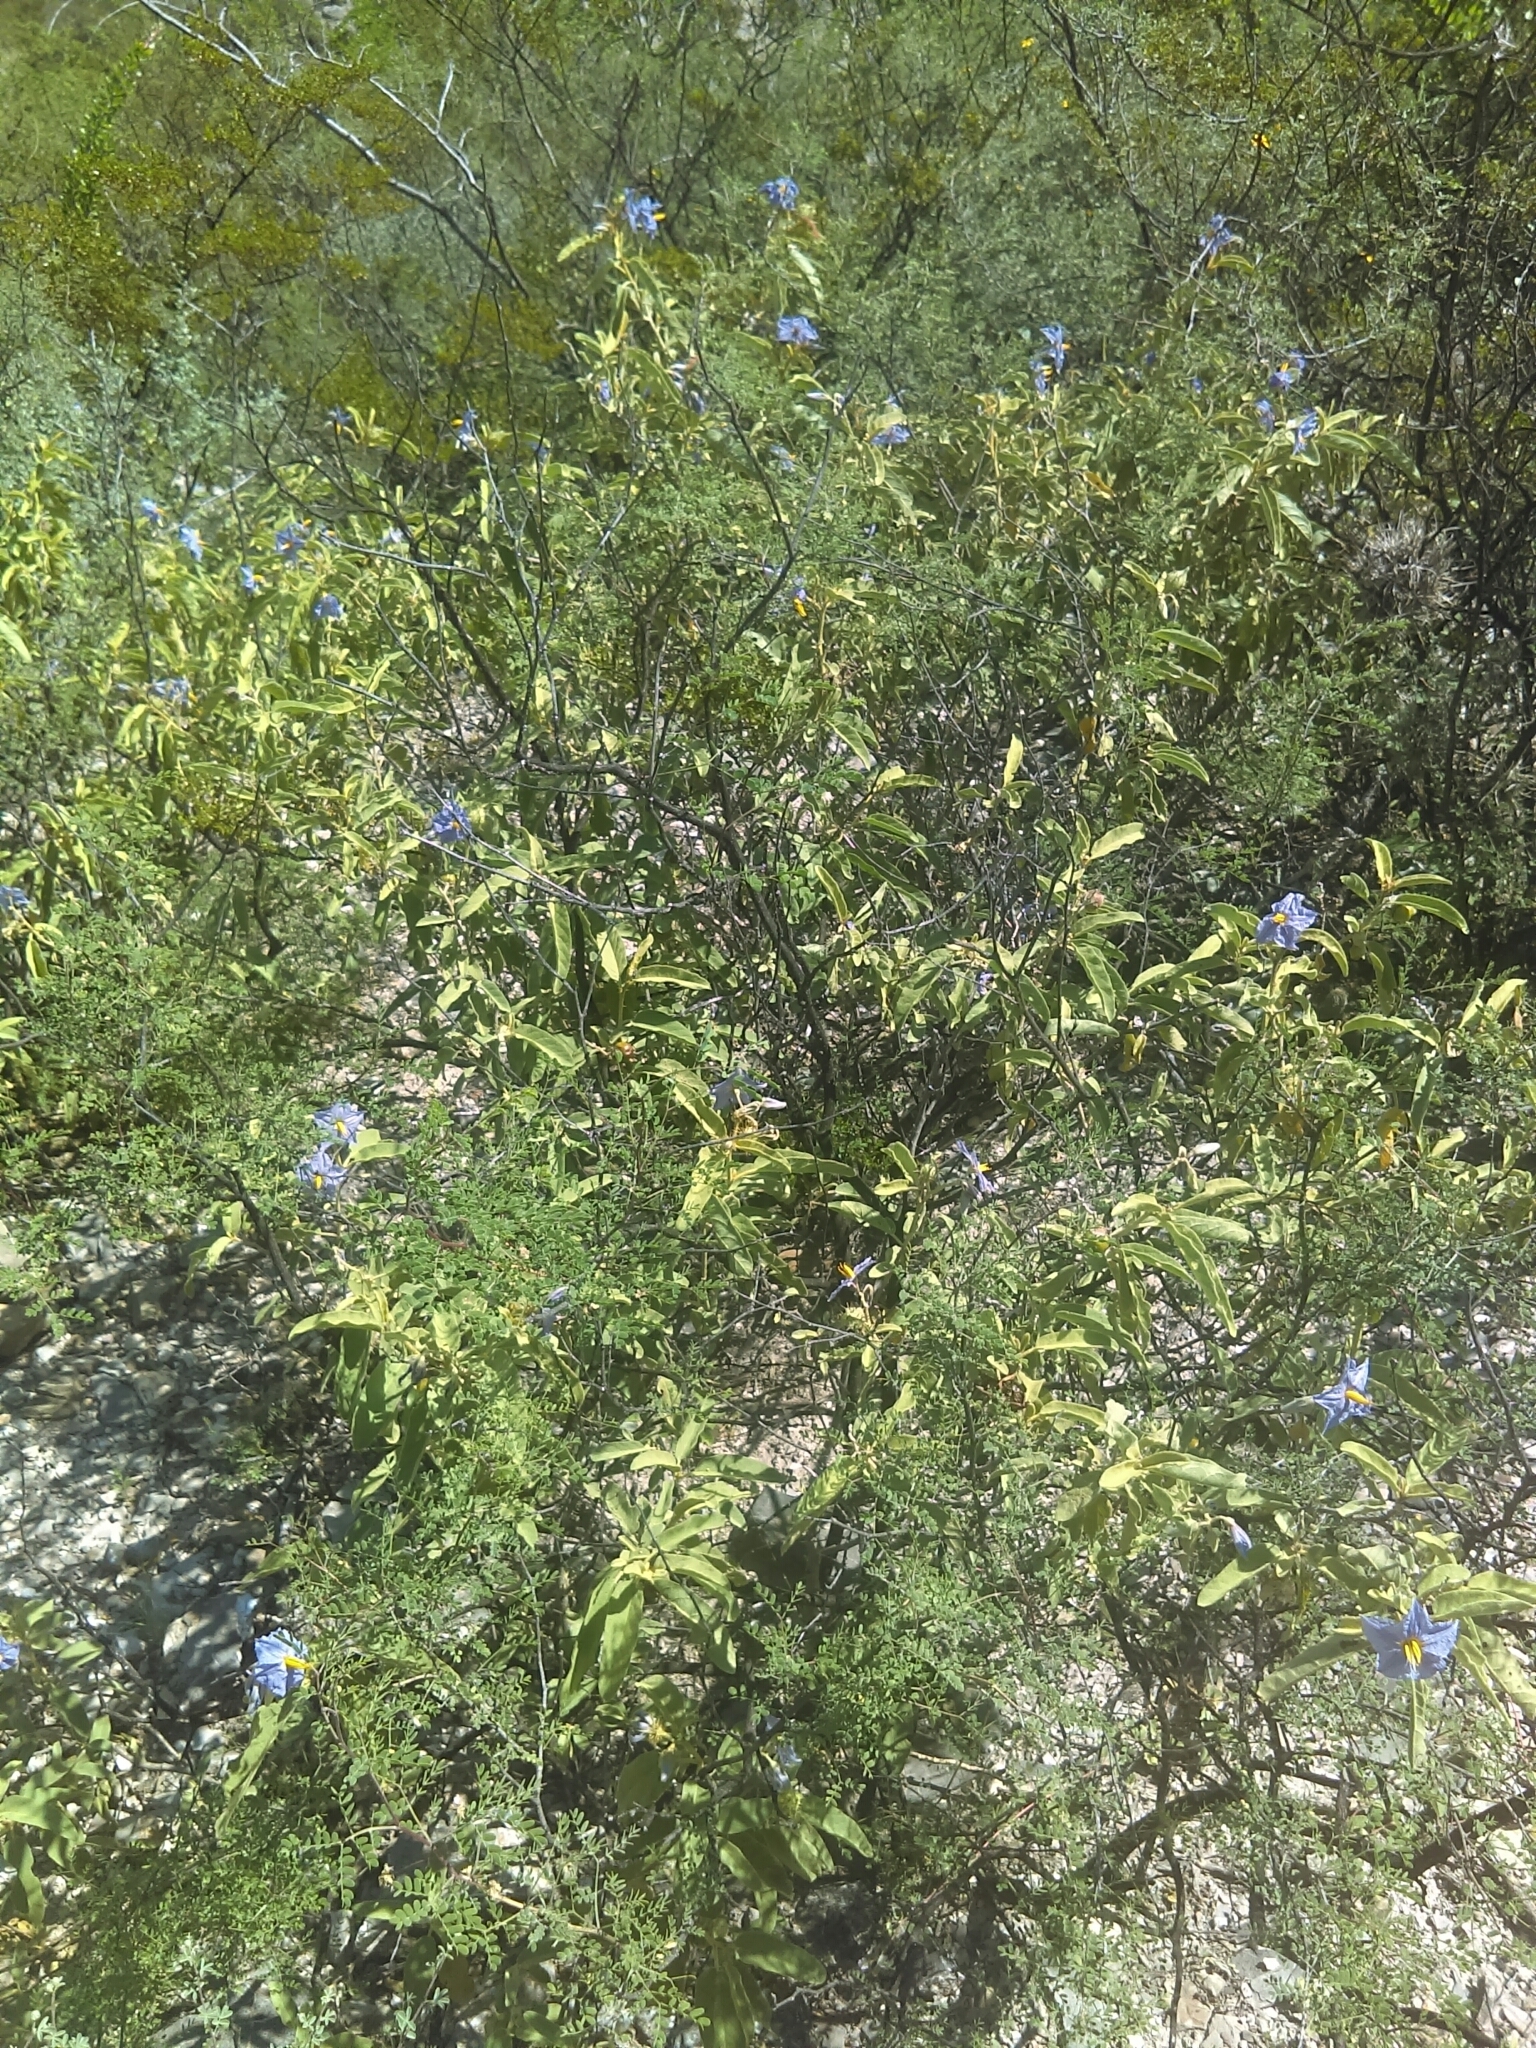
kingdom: Plantae
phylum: Tracheophyta
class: Magnoliopsida
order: Solanales
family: Solanaceae
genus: Solanum
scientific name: Solanum elaeagnifolium
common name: Silverleaf nightshade
